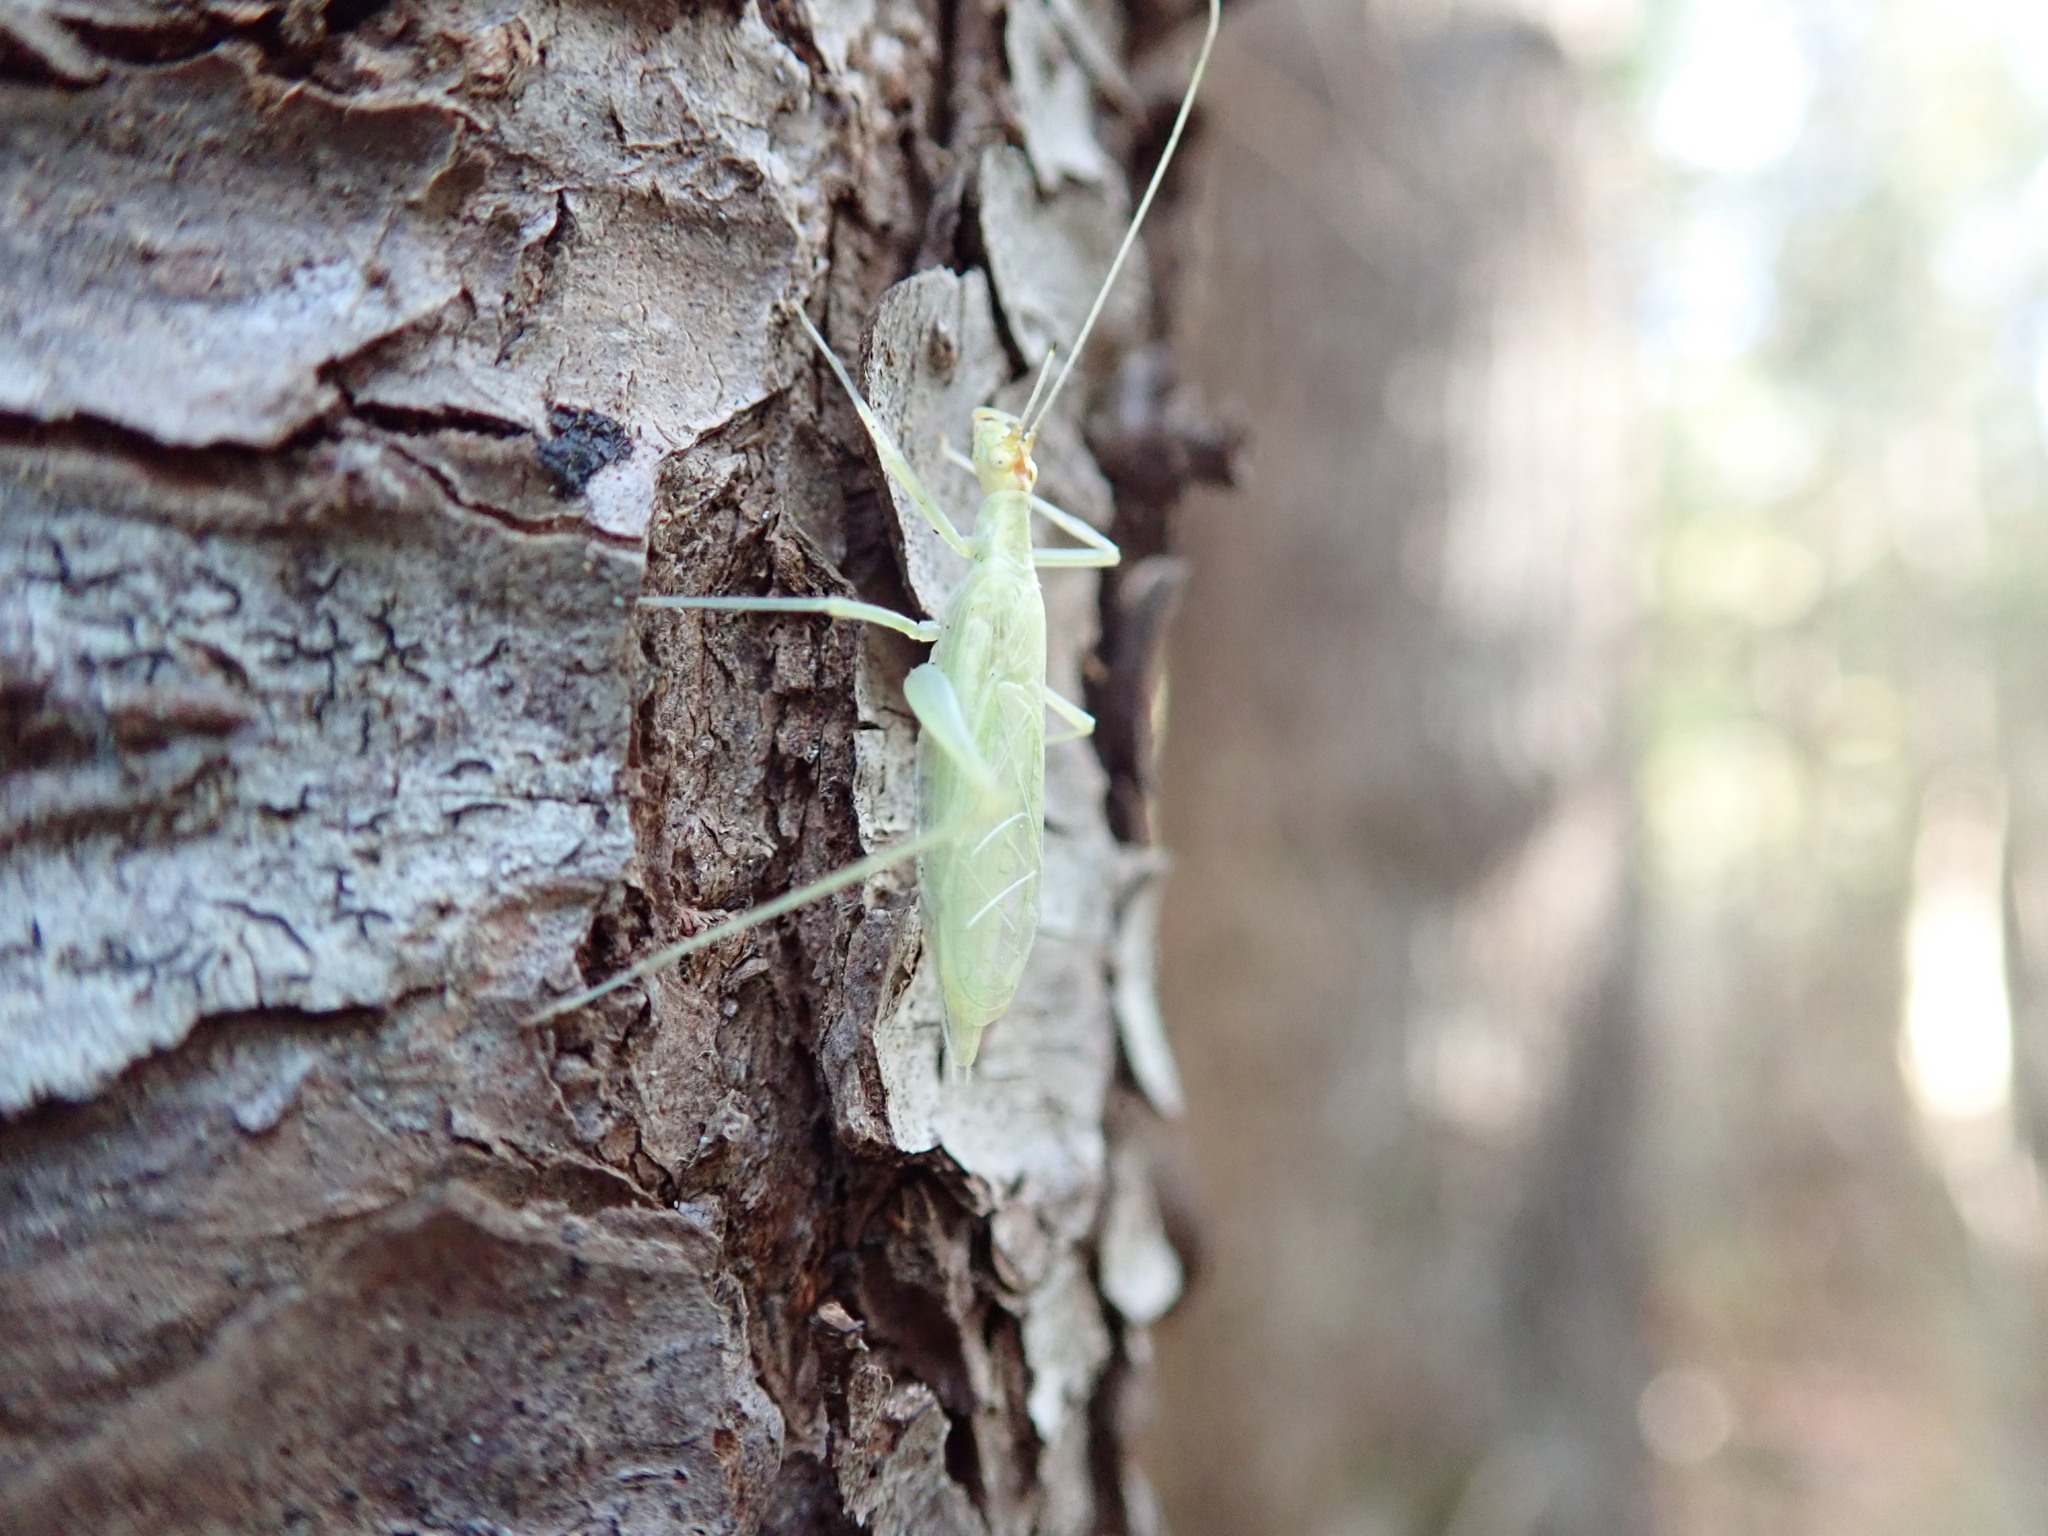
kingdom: Animalia
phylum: Arthropoda
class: Insecta
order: Orthoptera
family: Gryllidae
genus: Oecanthus
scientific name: Oecanthus fultoni
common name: Snowy tree cricket
